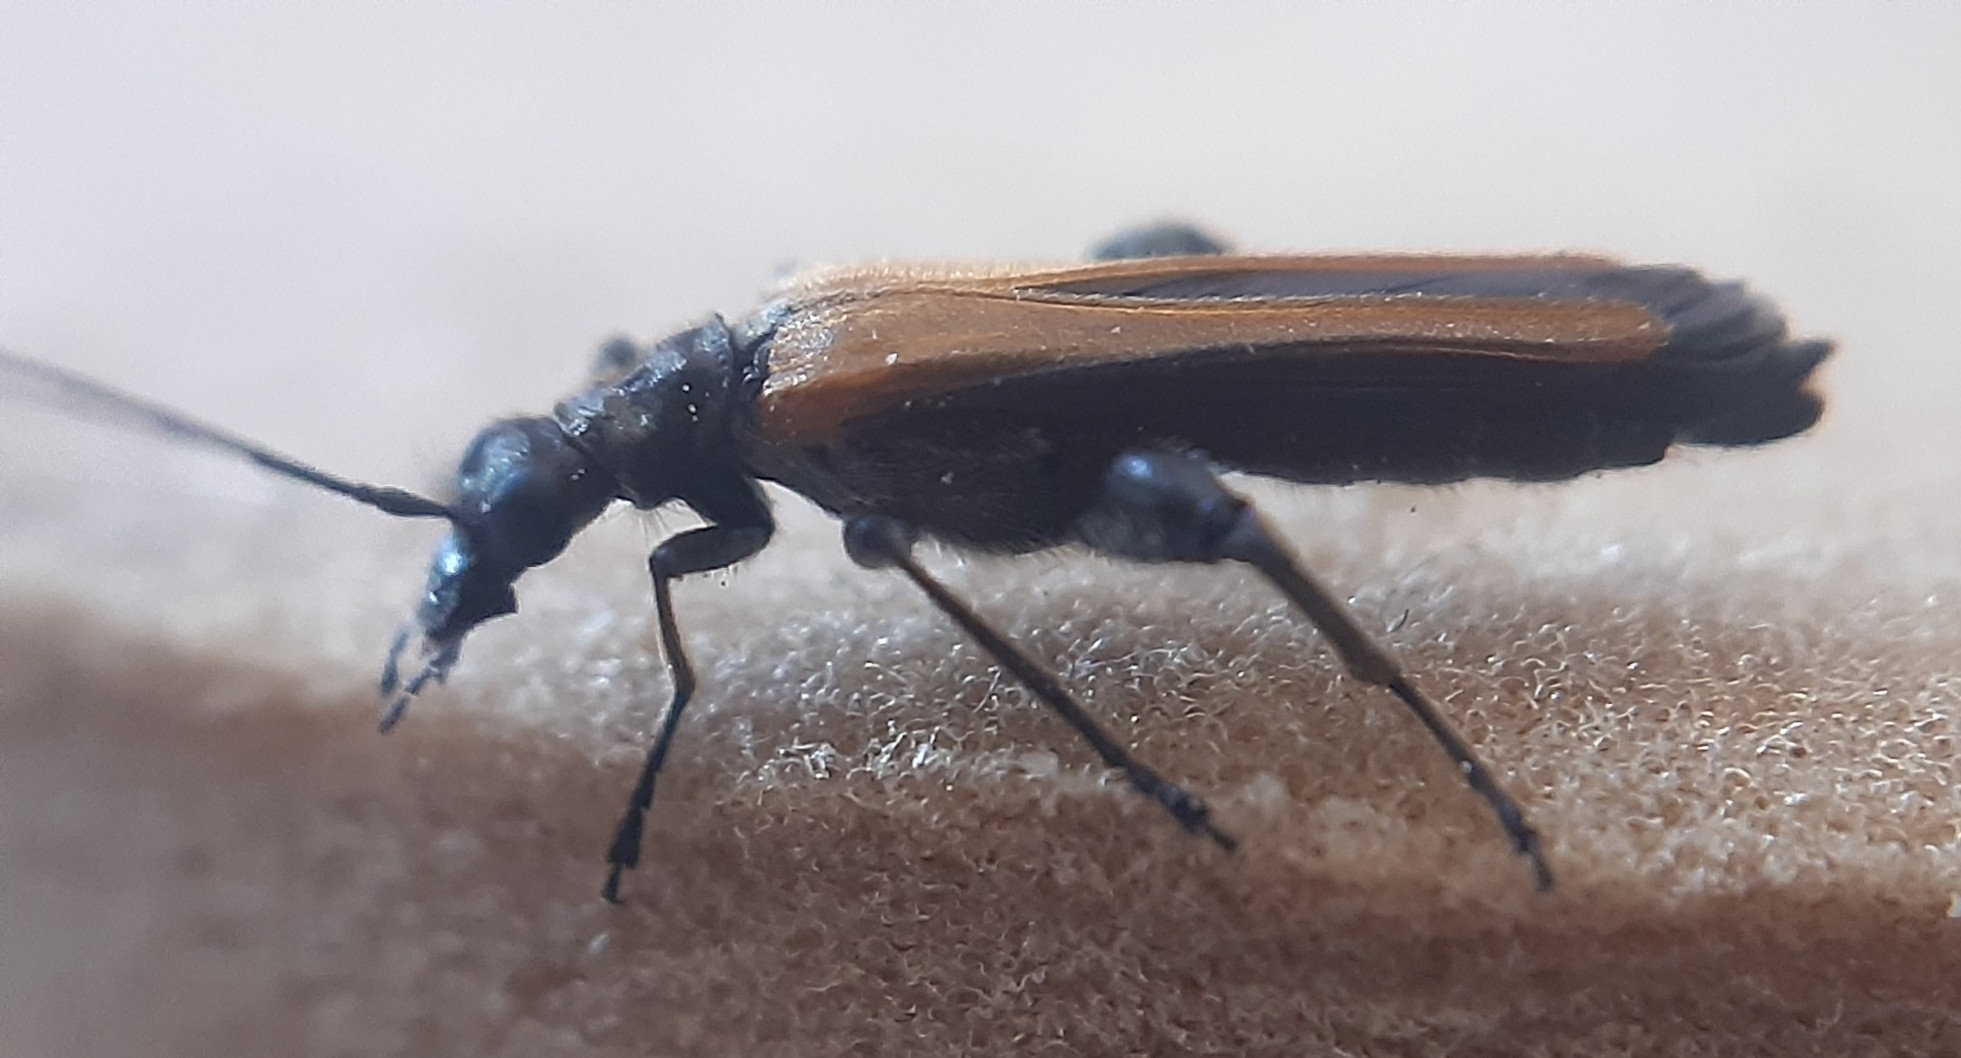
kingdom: Animalia
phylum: Arthropoda
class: Insecta
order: Coleoptera
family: Oedemeridae
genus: Oedemera
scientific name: Oedemera femorata
